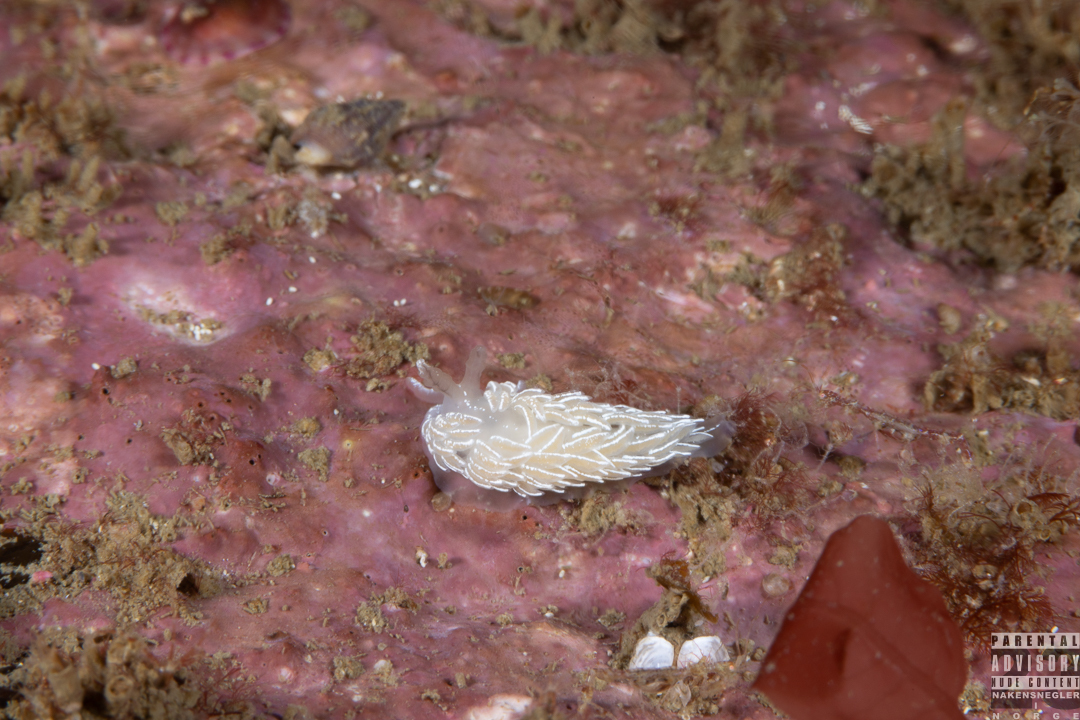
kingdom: Animalia
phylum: Mollusca
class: Gastropoda
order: Nudibranchia
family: Facelinidae
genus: Favorinus
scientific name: Favorinus blianus
